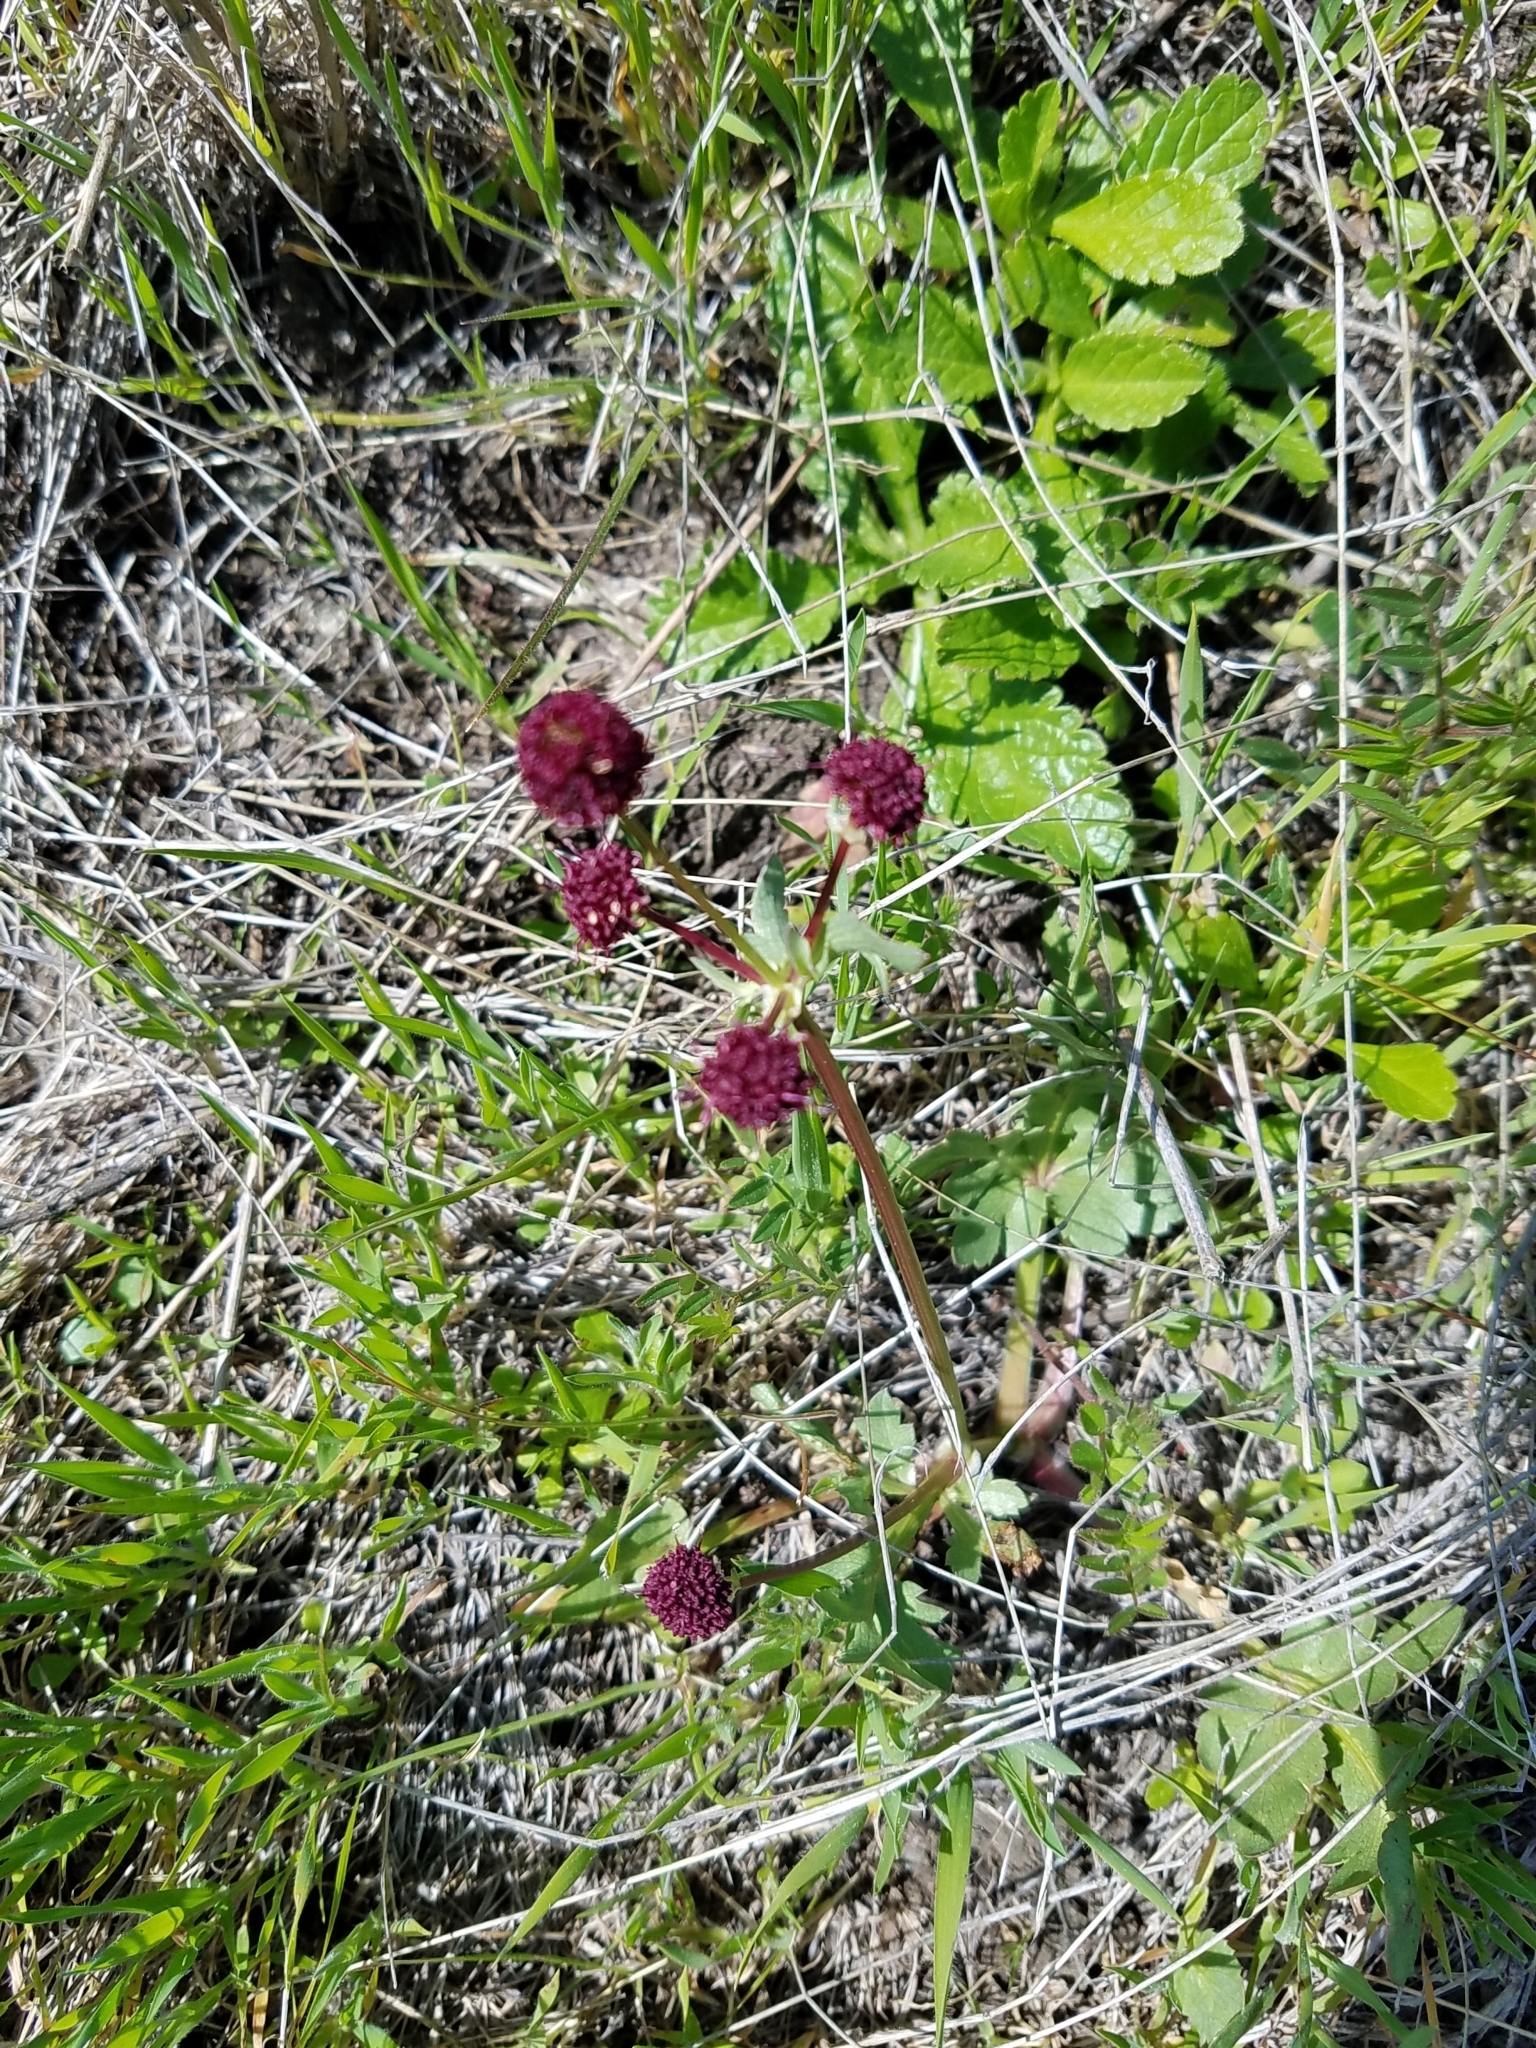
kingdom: Plantae
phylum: Tracheophyta
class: Magnoliopsida
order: Apiales
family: Apiaceae
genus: Sanicula
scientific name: Sanicula bipinnatifida
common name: Shoe-buttons
